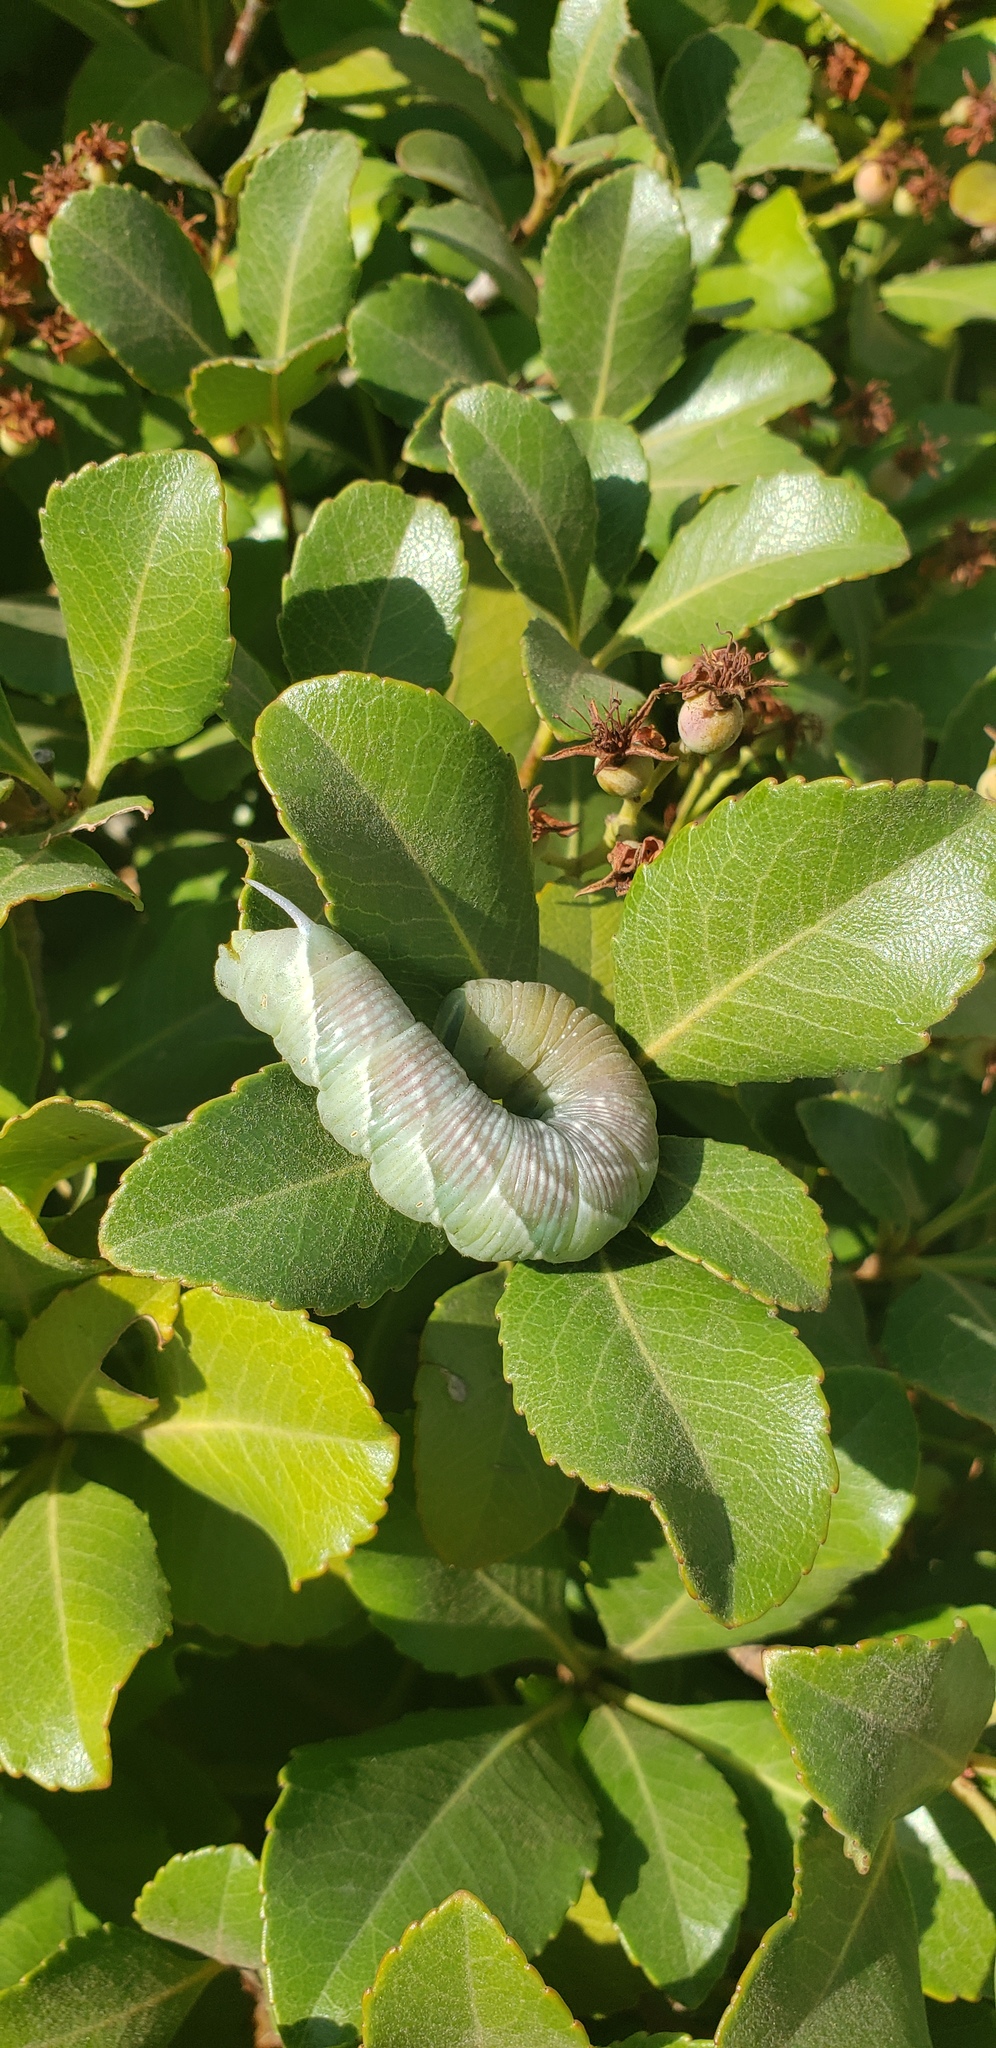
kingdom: Animalia
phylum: Arthropoda
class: Insecta
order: Lepidoptera
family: Sphingidae
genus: Sphinx
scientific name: Sphinx chersis
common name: Great ash sphinx
